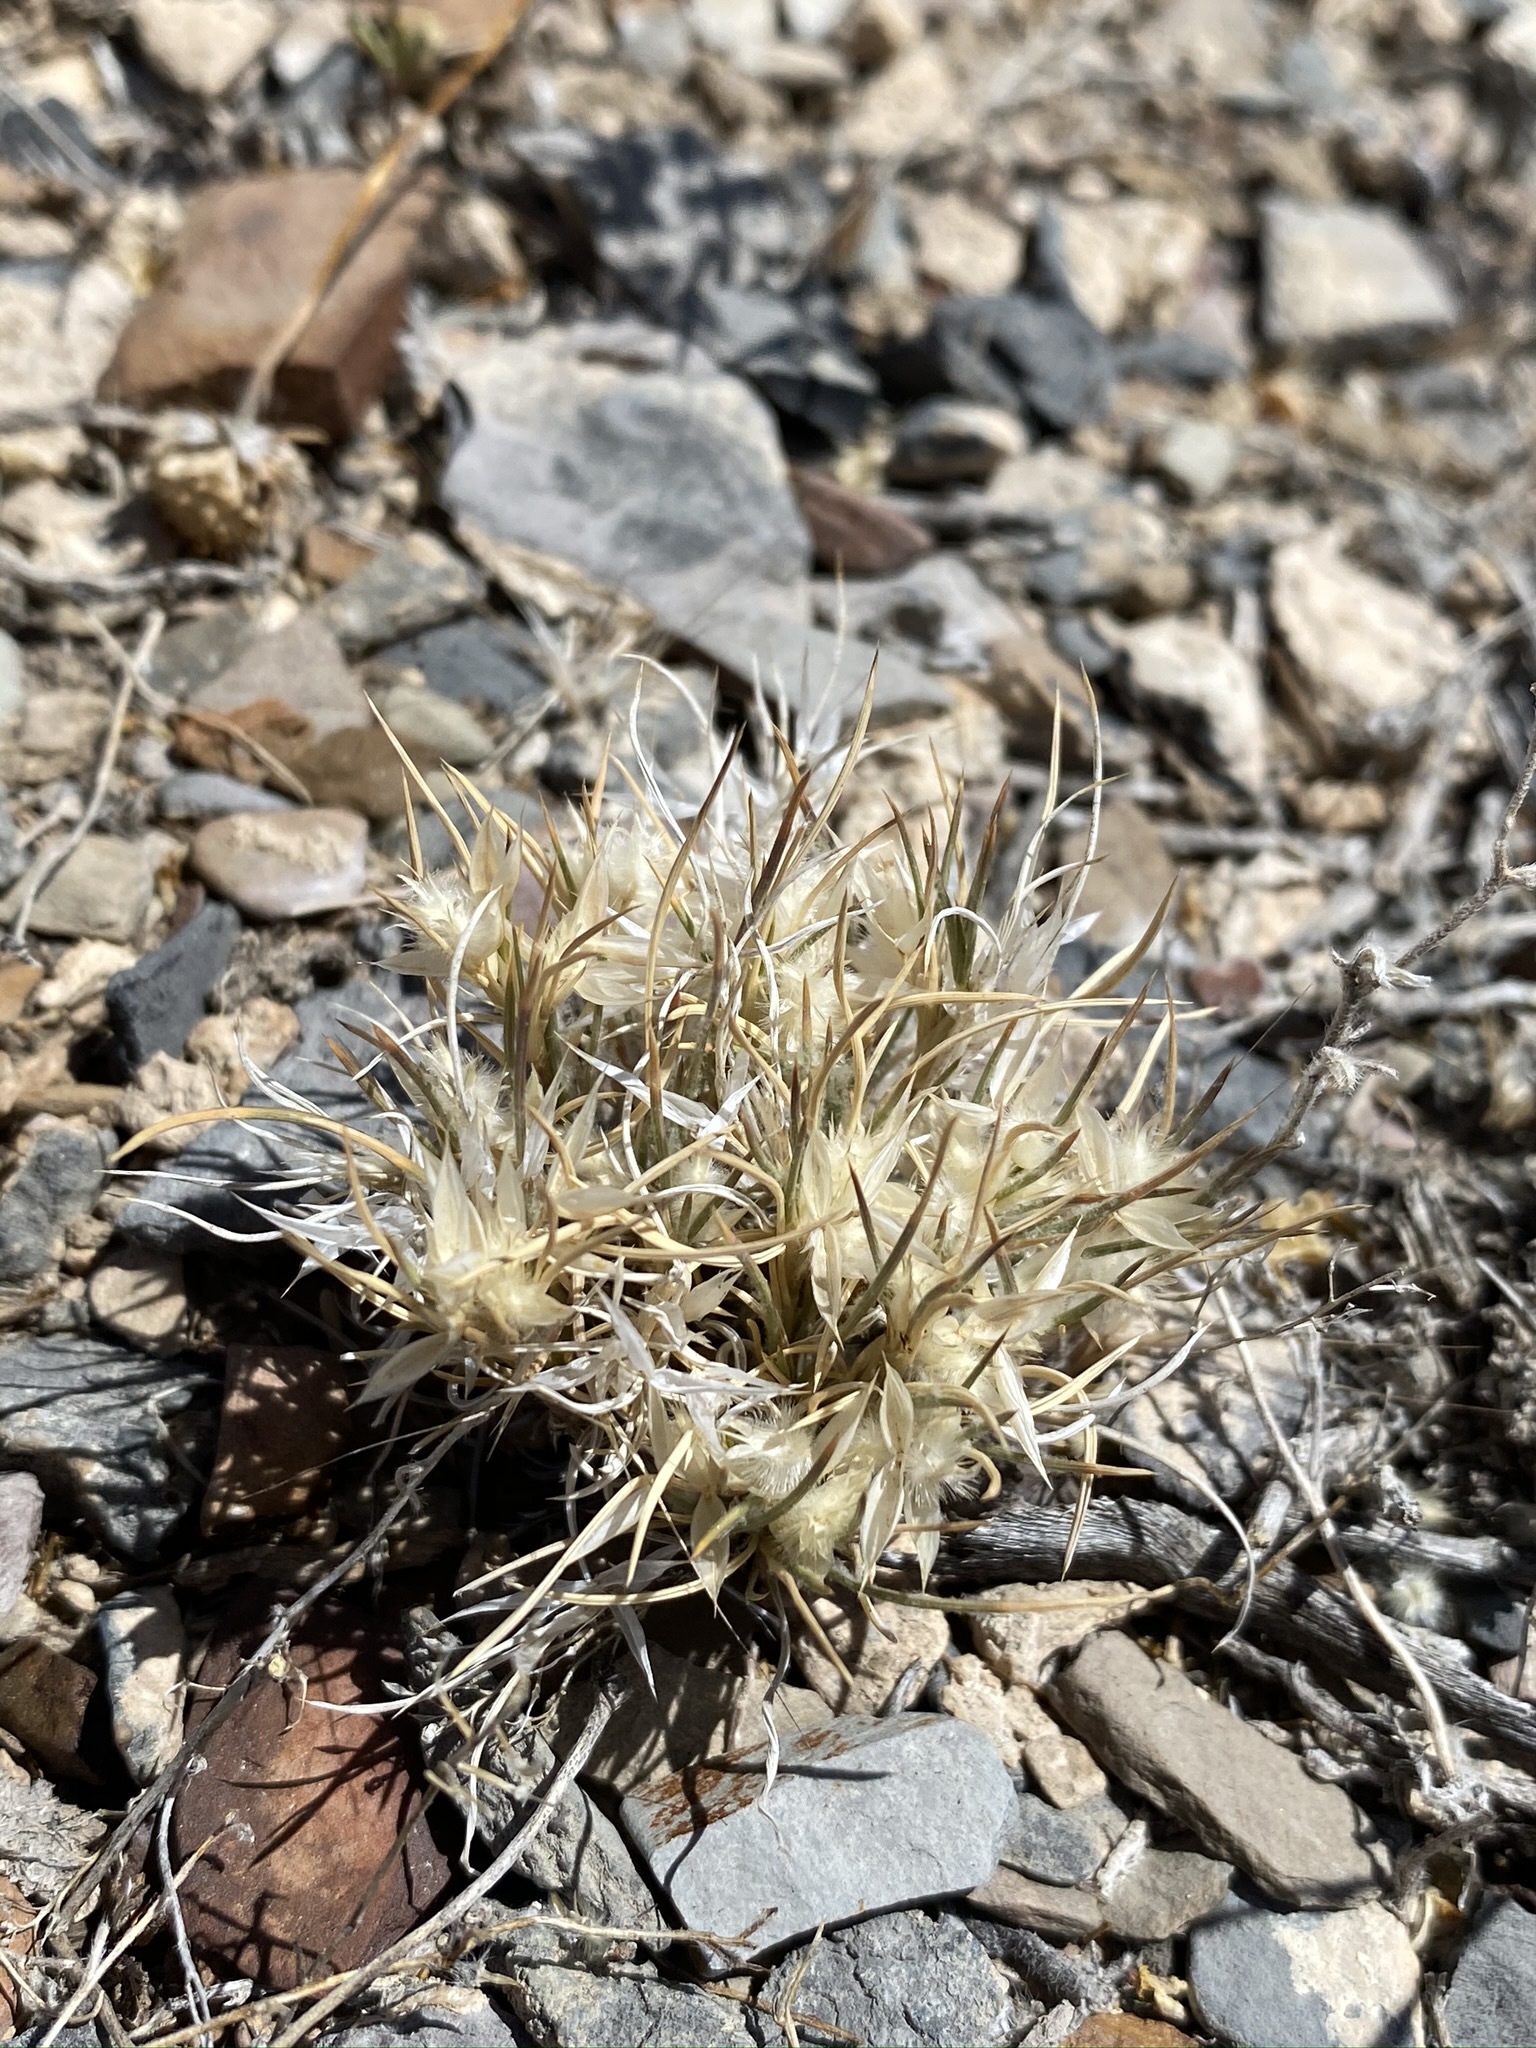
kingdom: Plantae
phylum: Tracheophyta
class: Liliopsida
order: Poales
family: Poaceae
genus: Dasyochloa
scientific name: Dasyochloa pulchella
